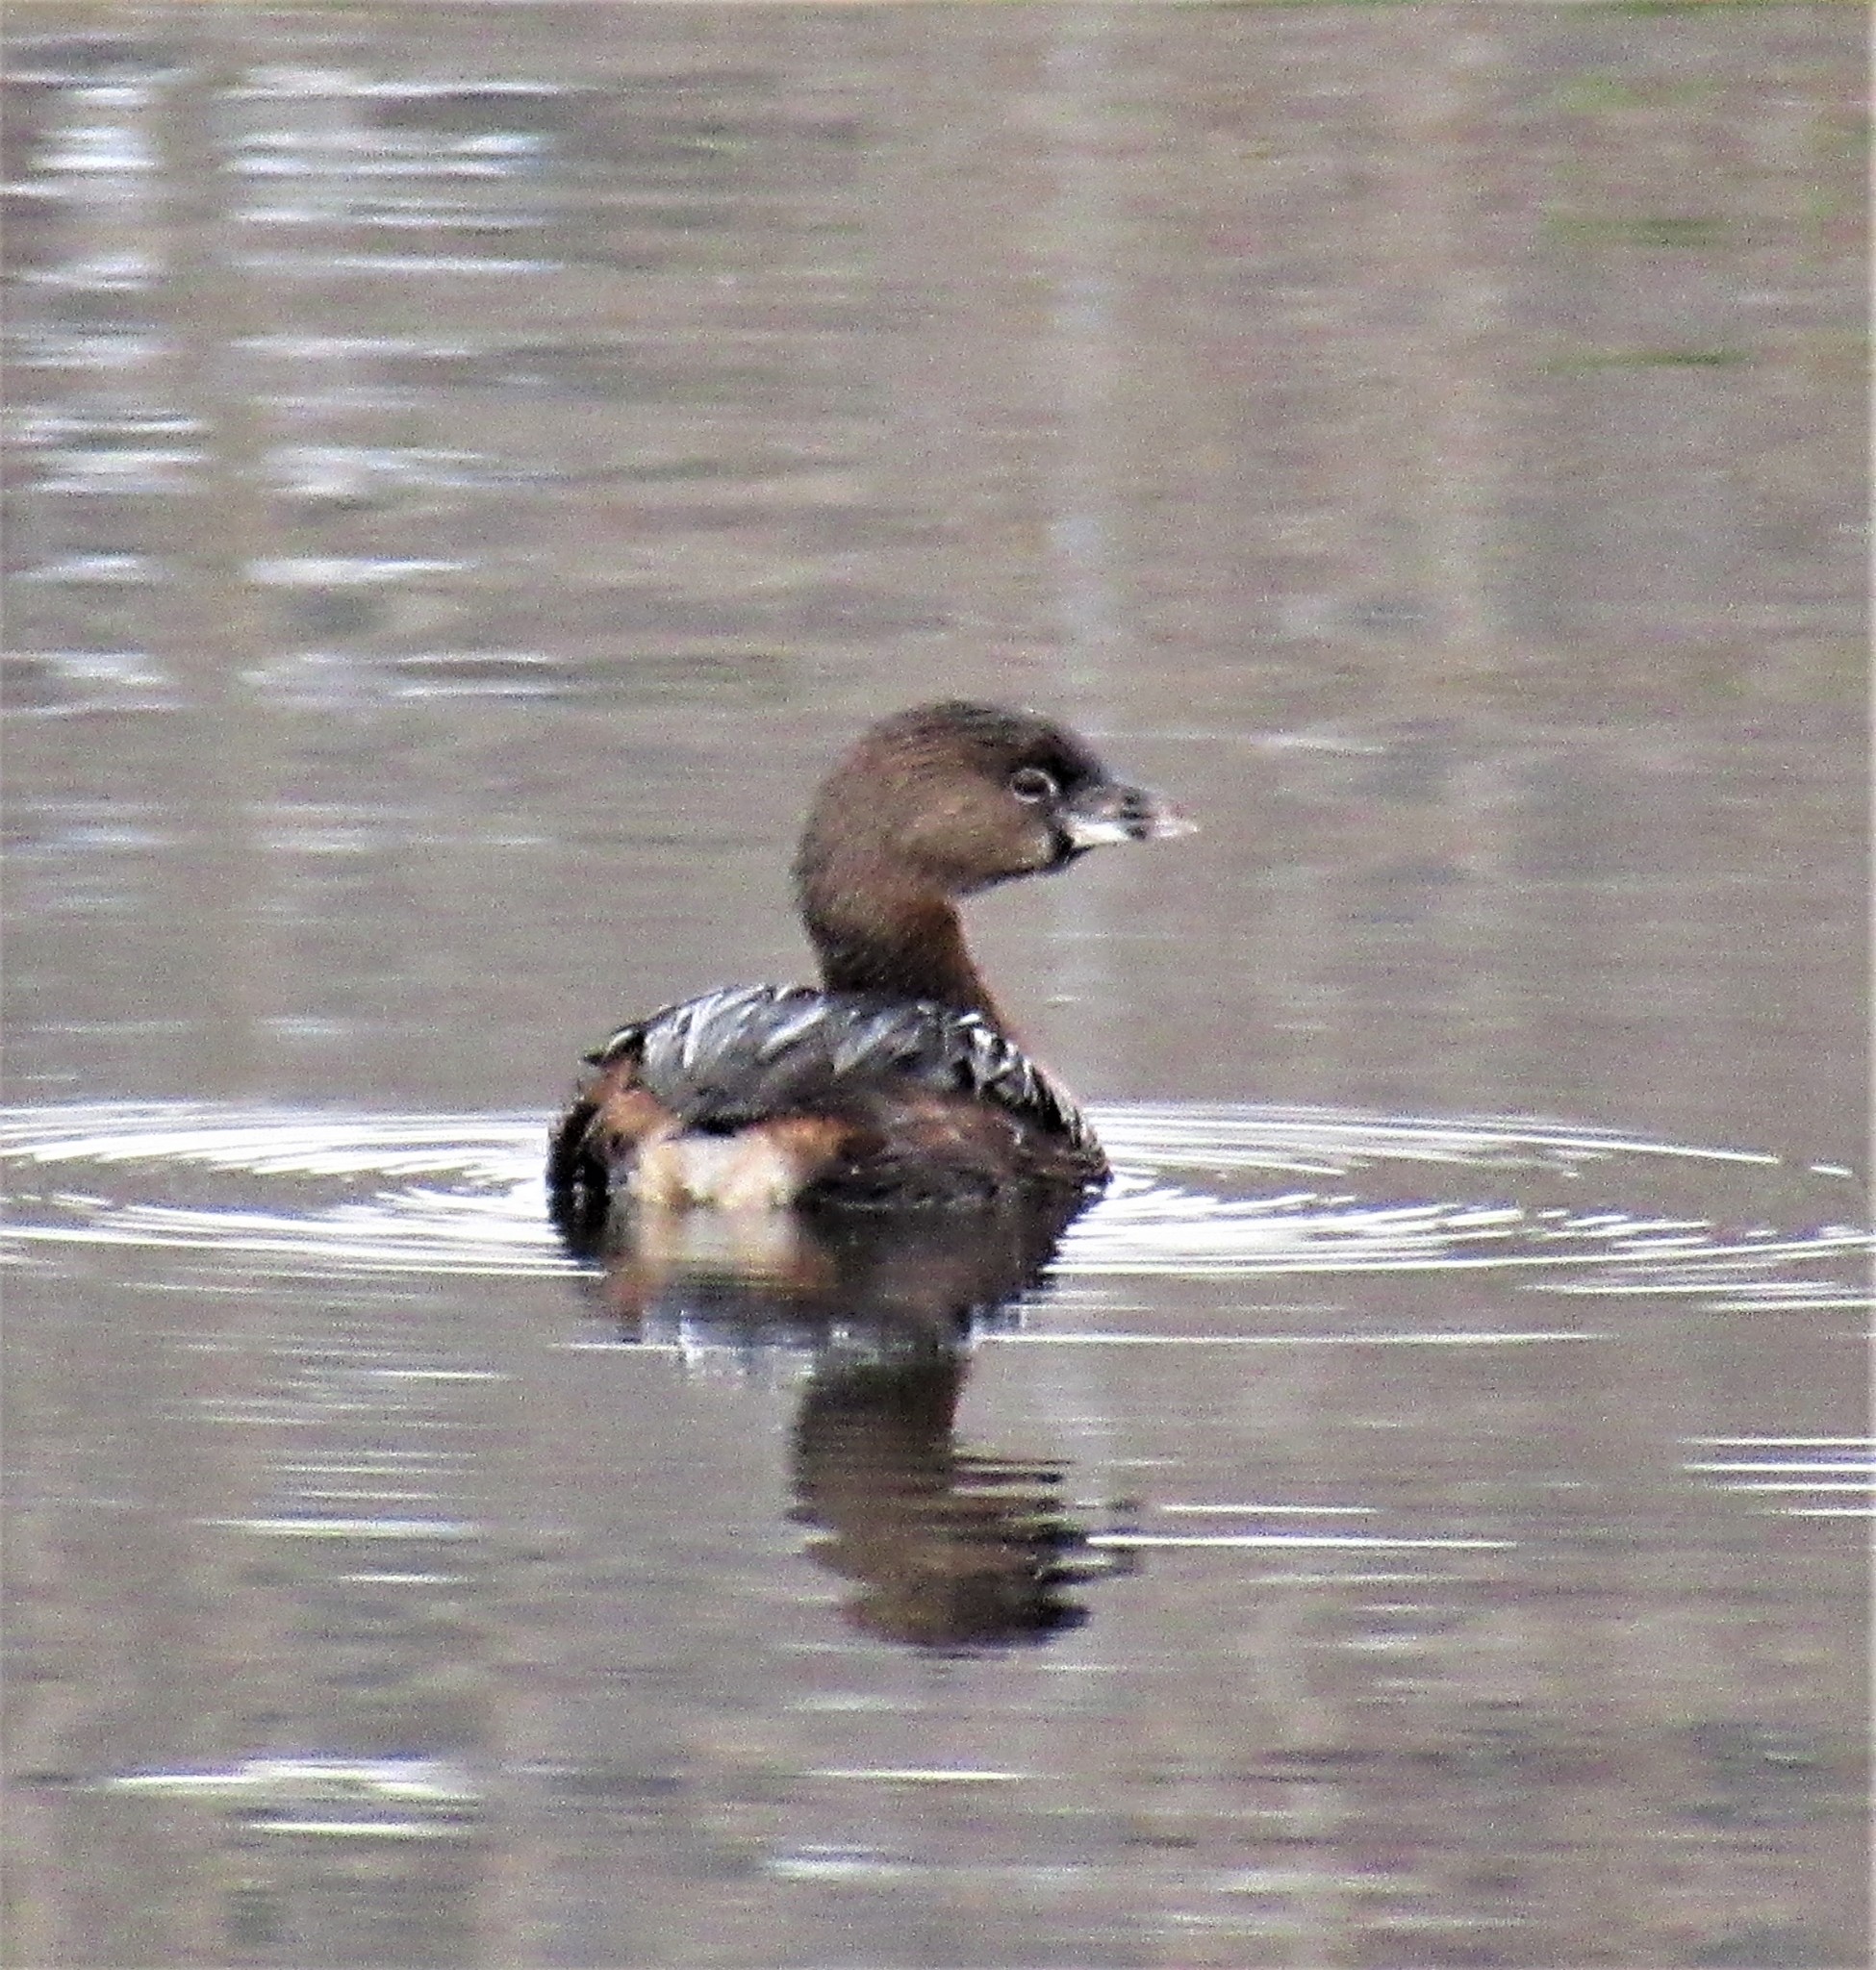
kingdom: Animalia
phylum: Chordata
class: Aves
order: Podicipediformes
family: Podicipedidae
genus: Podilymbus
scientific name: Podilymbus podiceps
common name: Pied-billed grebe
